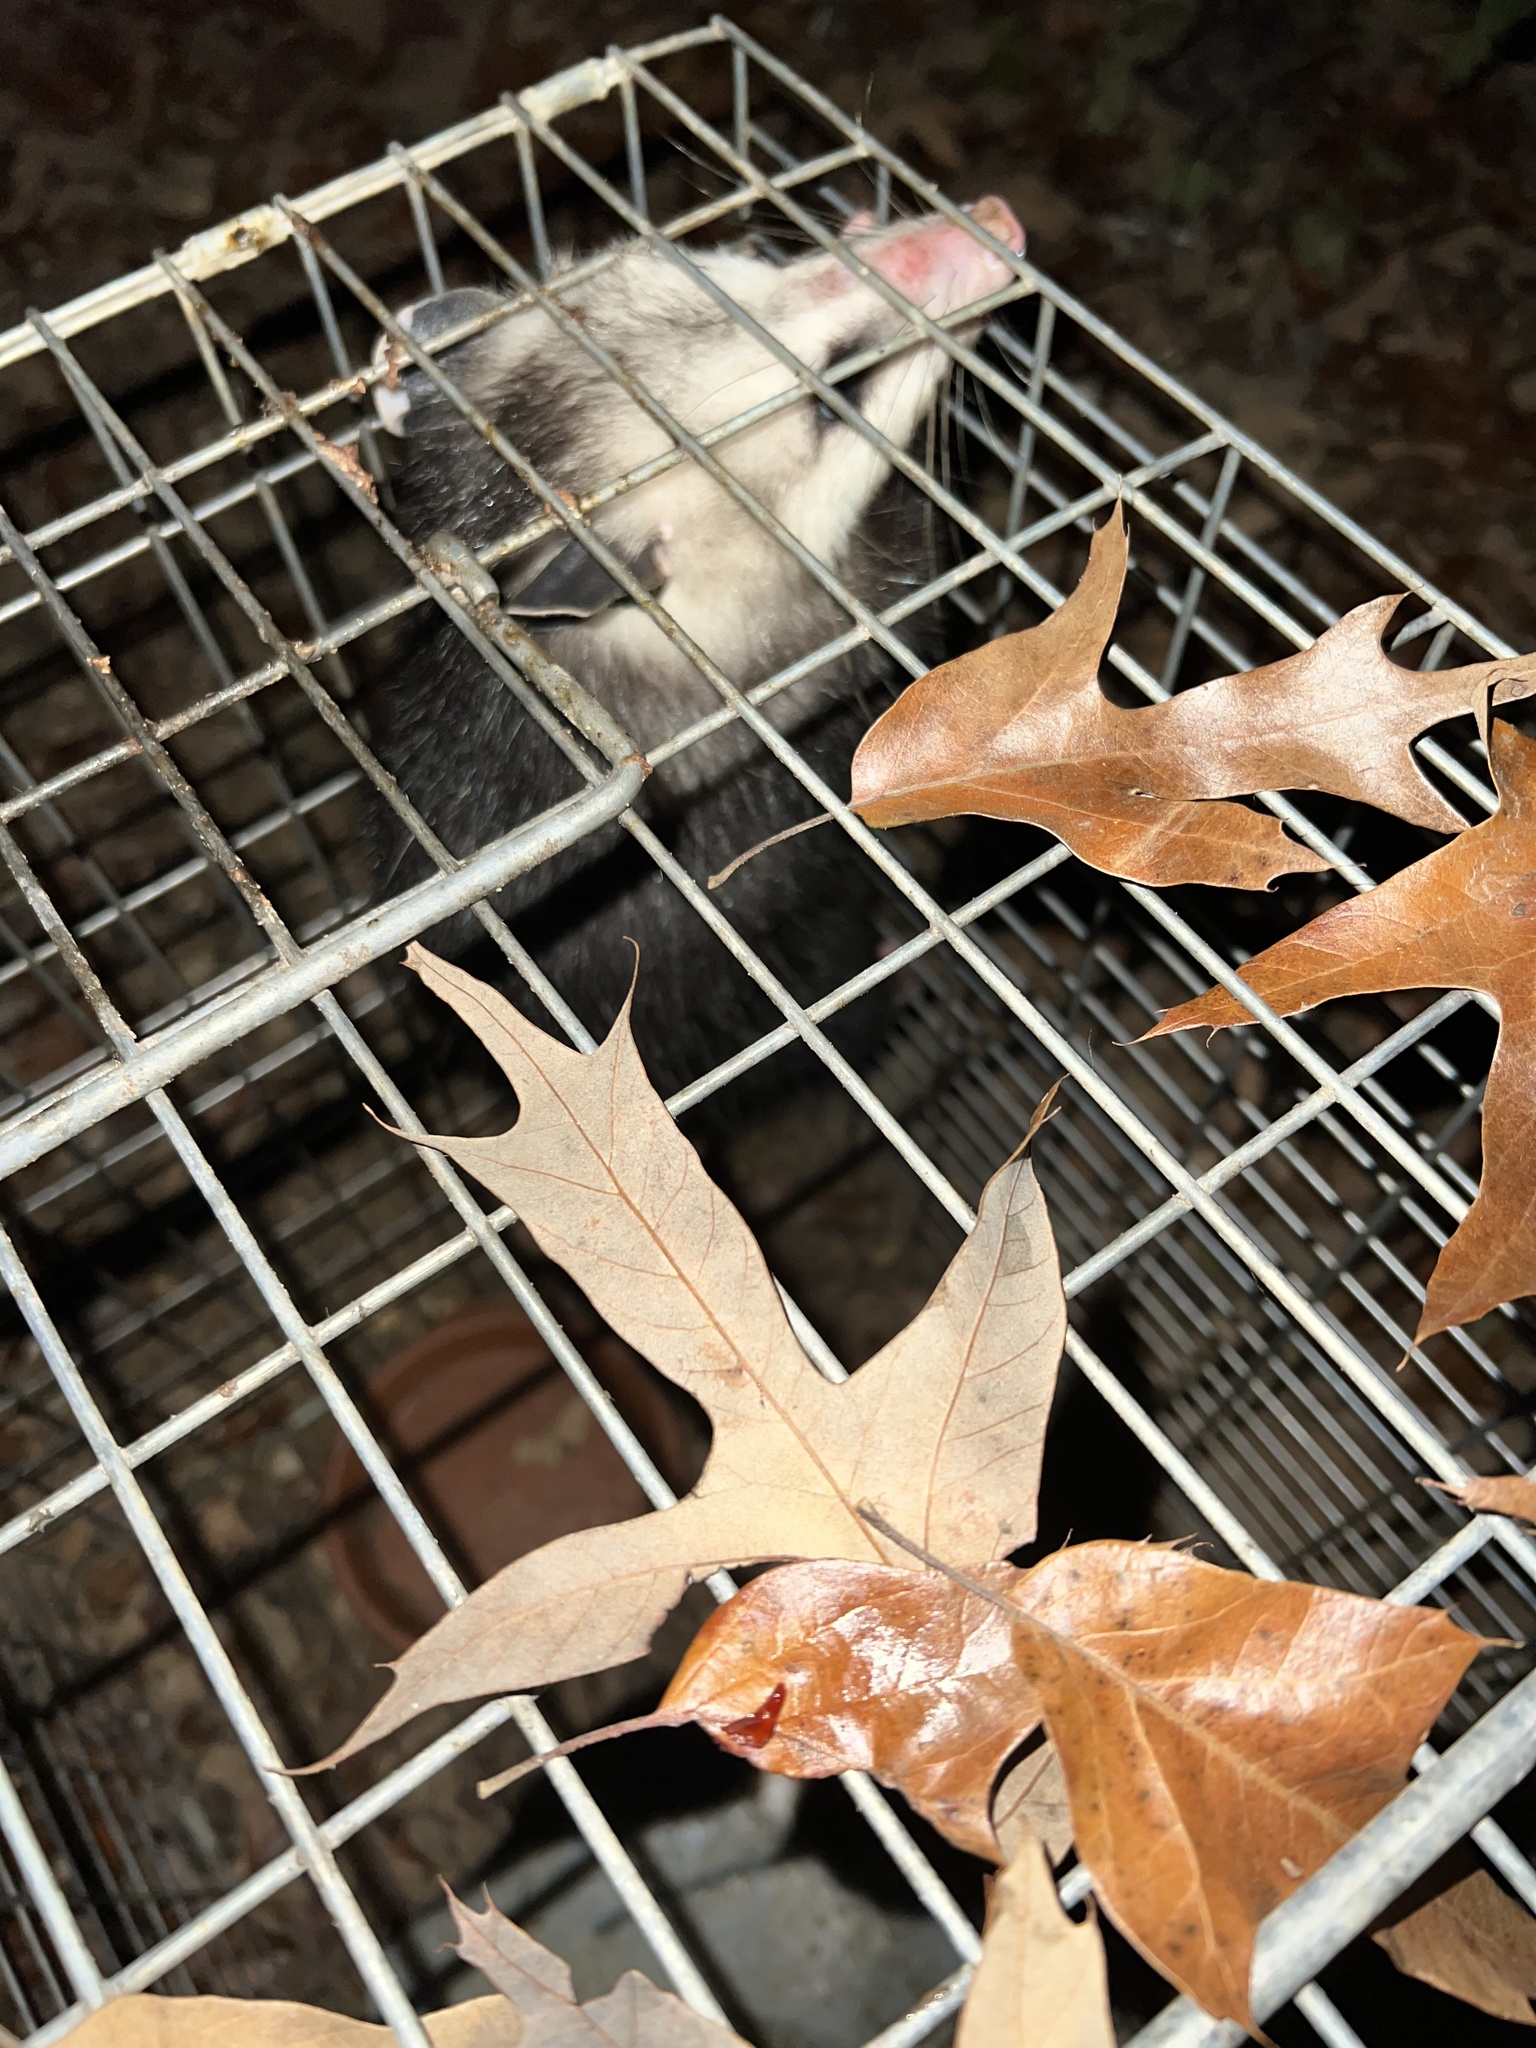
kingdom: Animalia
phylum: Chordata
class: Mammalia
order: Didelphimorphia
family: Didelphidae
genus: Didelphis
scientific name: Didelphis virginiana
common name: Virginia opossum
